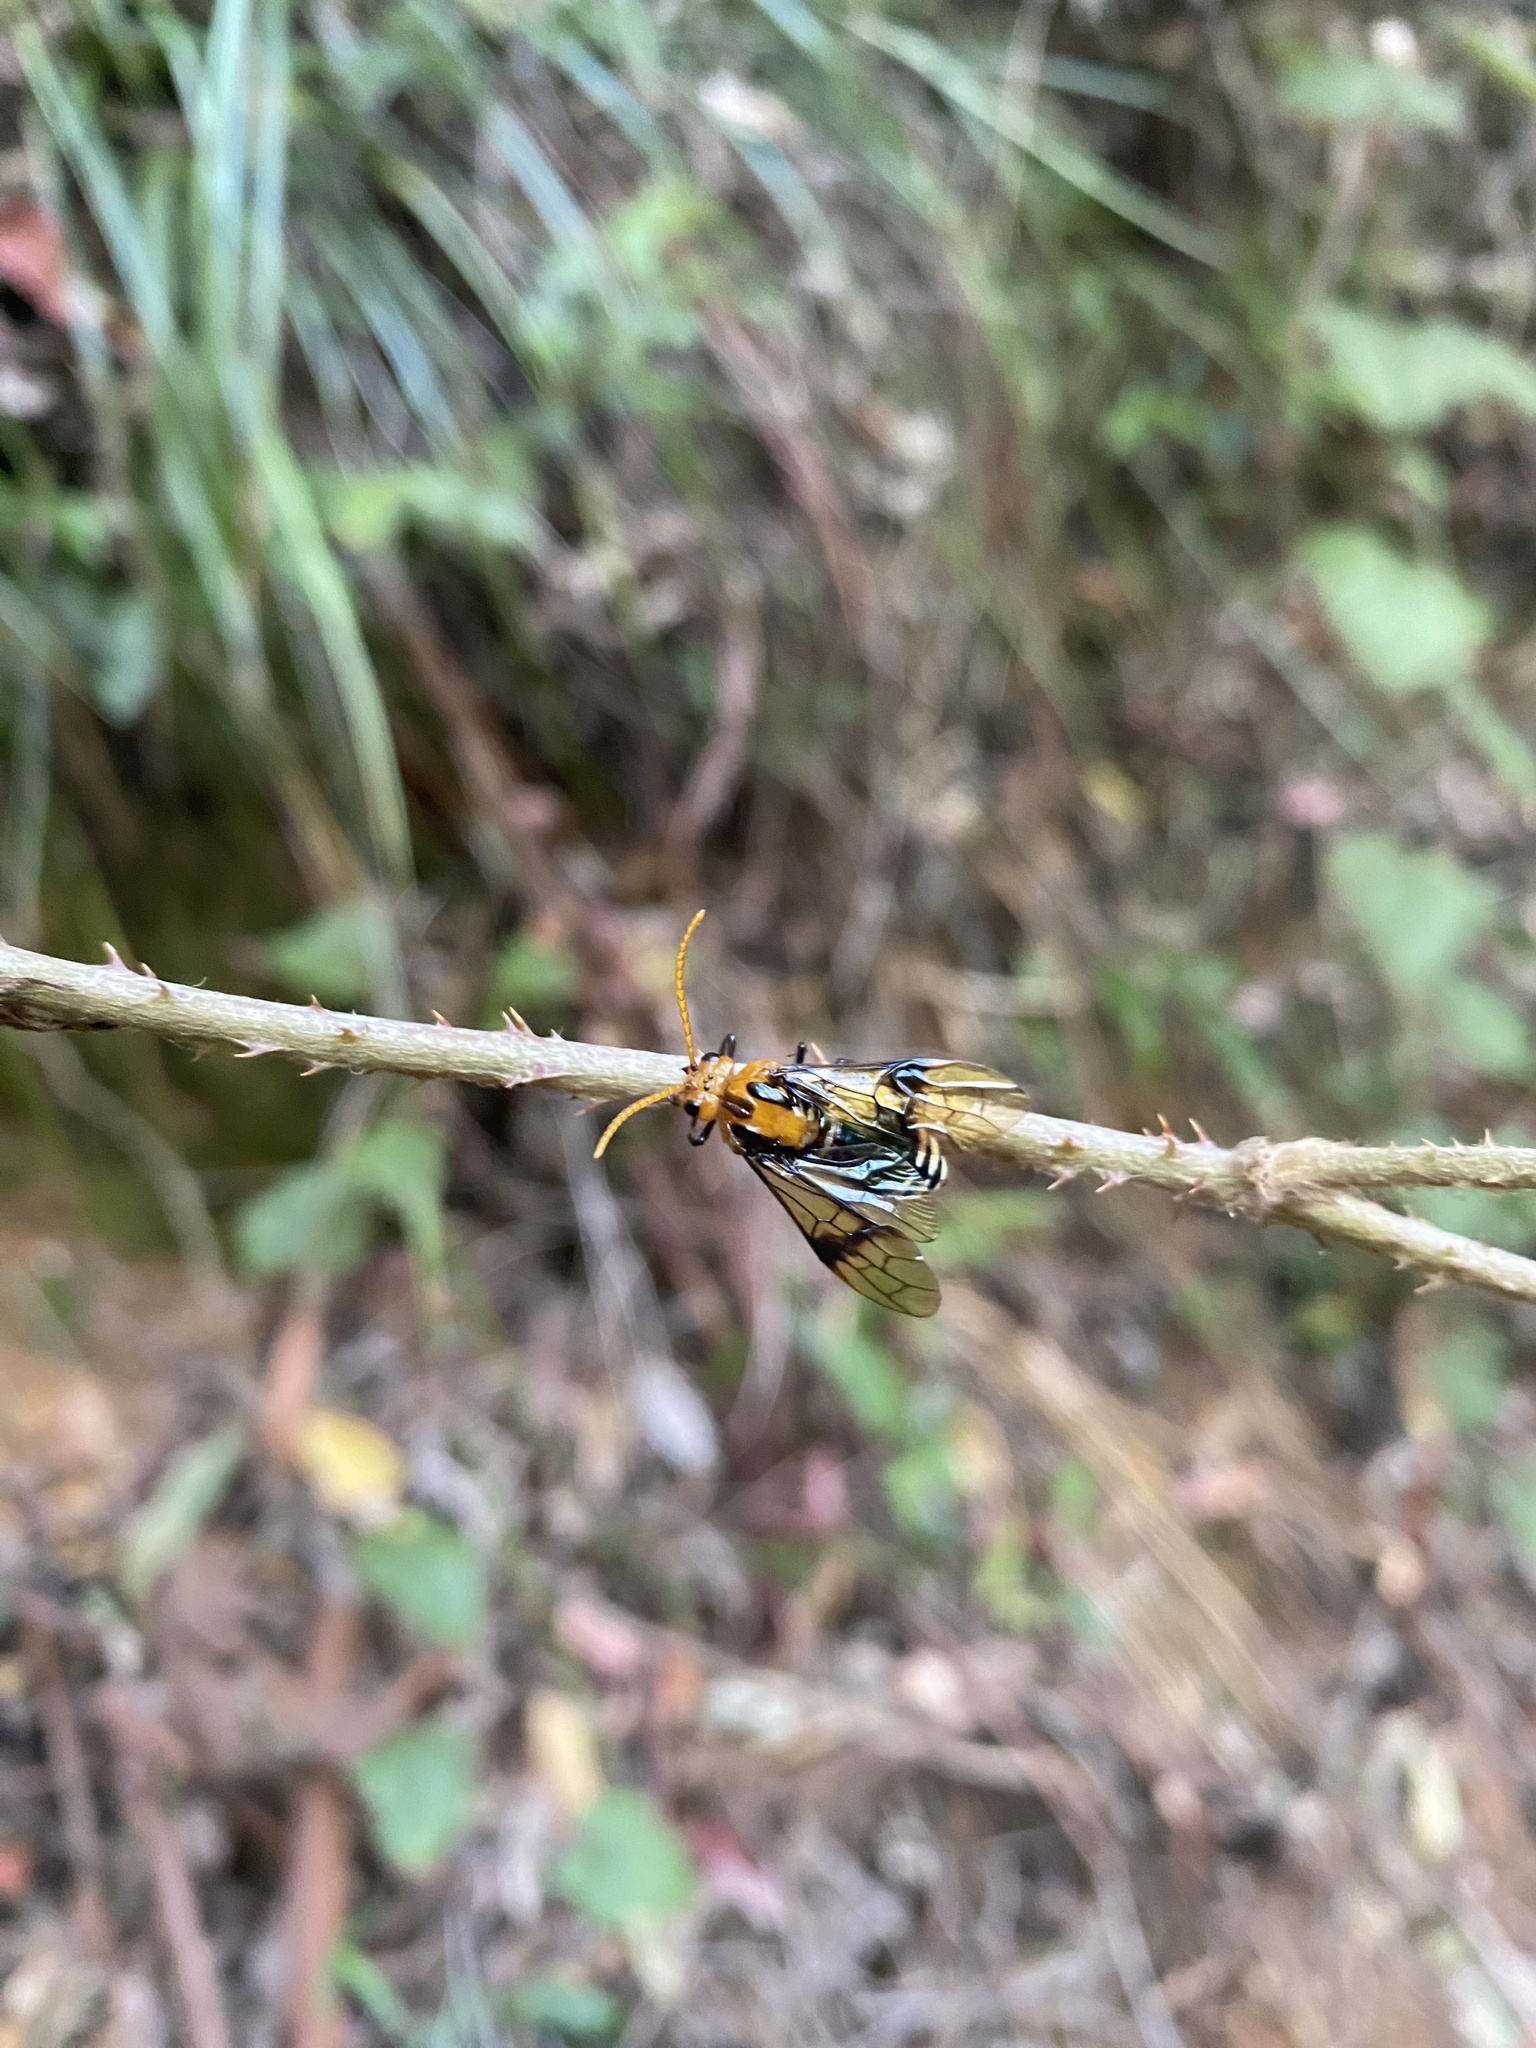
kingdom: Animalia
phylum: Arthropoda
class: Insecta
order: Hymenoptera
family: Pergidae
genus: Philomastix
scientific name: Philomastix macleaii
